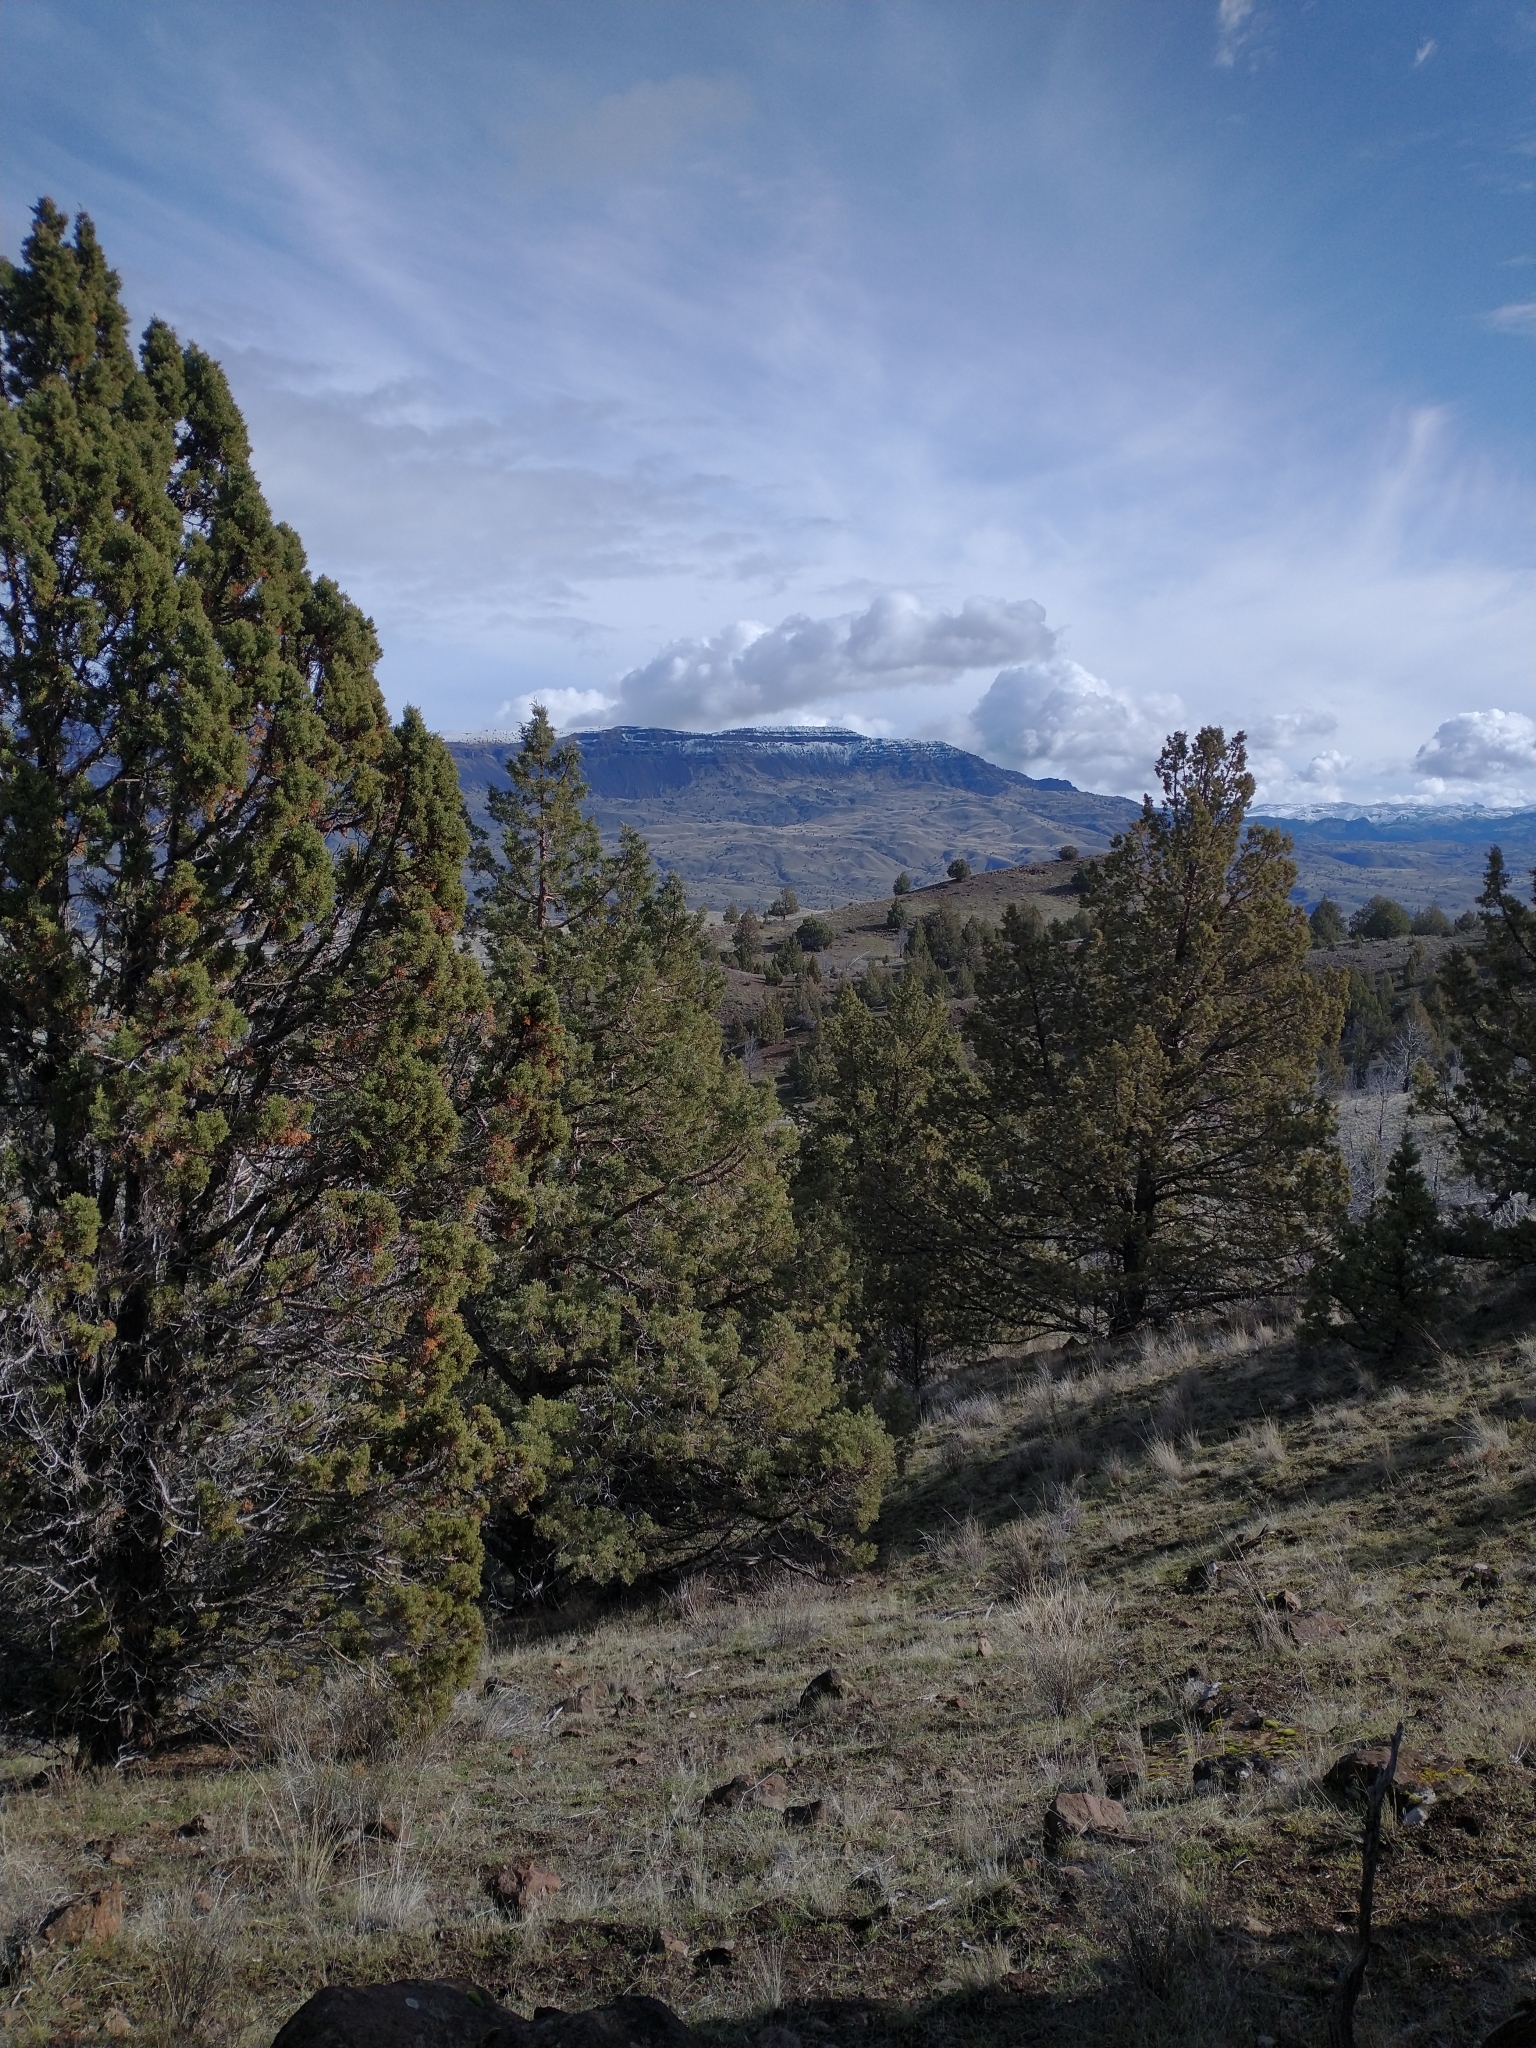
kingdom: Plantae
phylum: Tracheophyta
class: Pinopsida
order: Pinales
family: Cupressaceae
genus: Juniperus
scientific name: Juniperus occidentalis
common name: Western juniper
